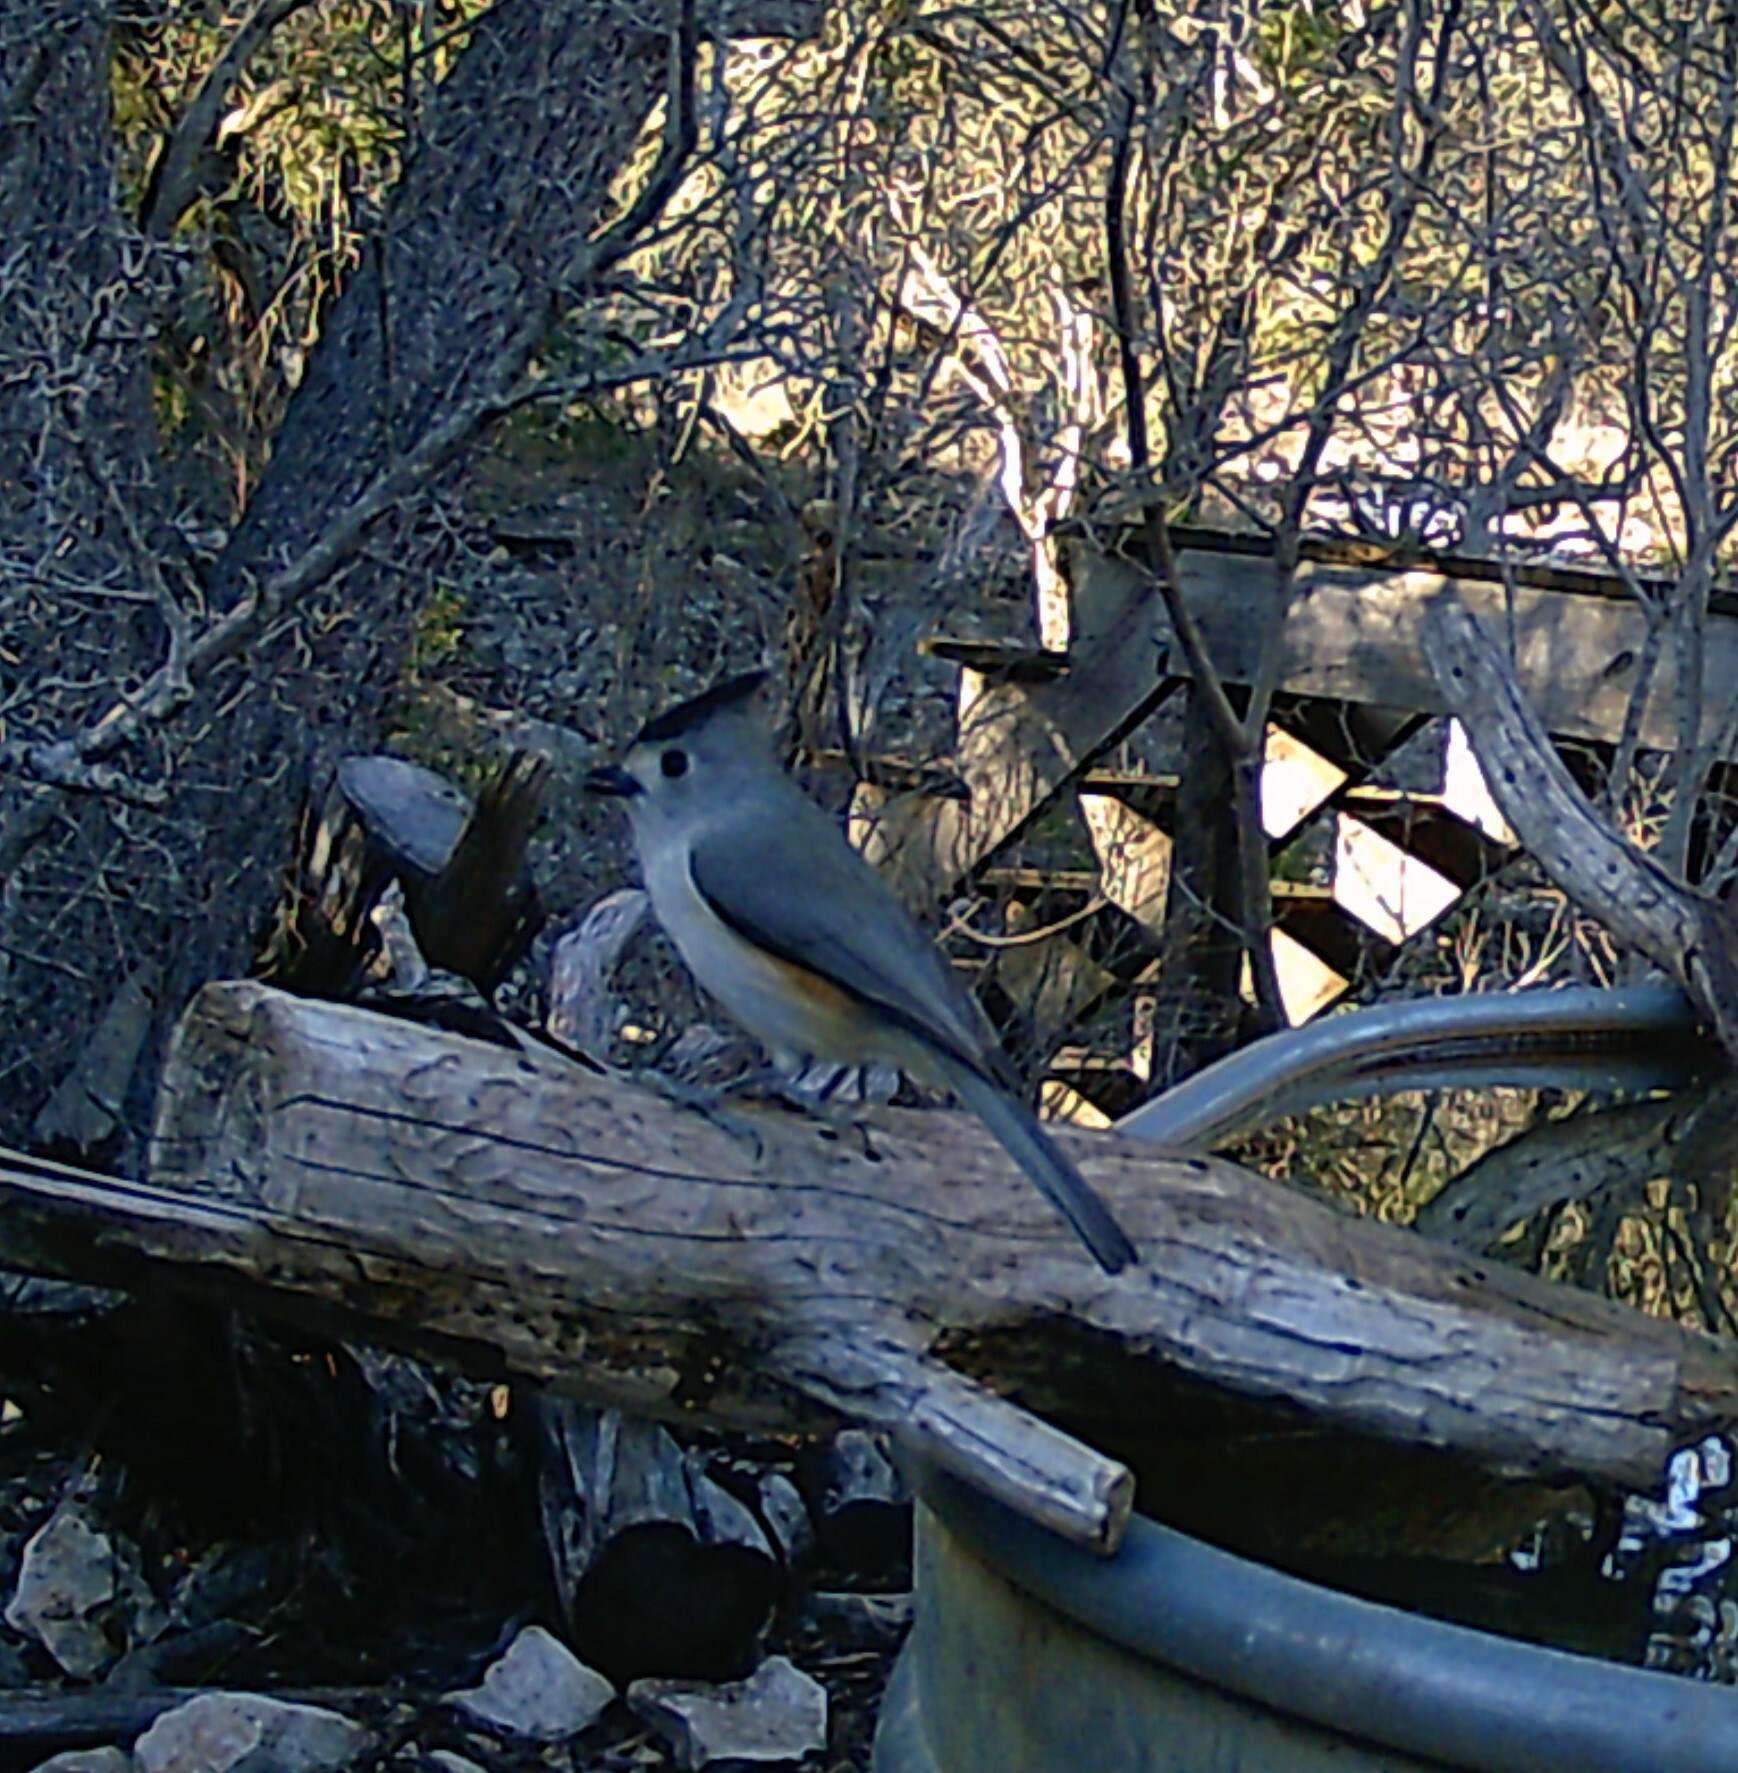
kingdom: Animalia
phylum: Chordata
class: Aves
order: Passeriformes
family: Paridae
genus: Baeolophus
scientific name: Baeolophus atricristatus
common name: Black-crested titmouse
